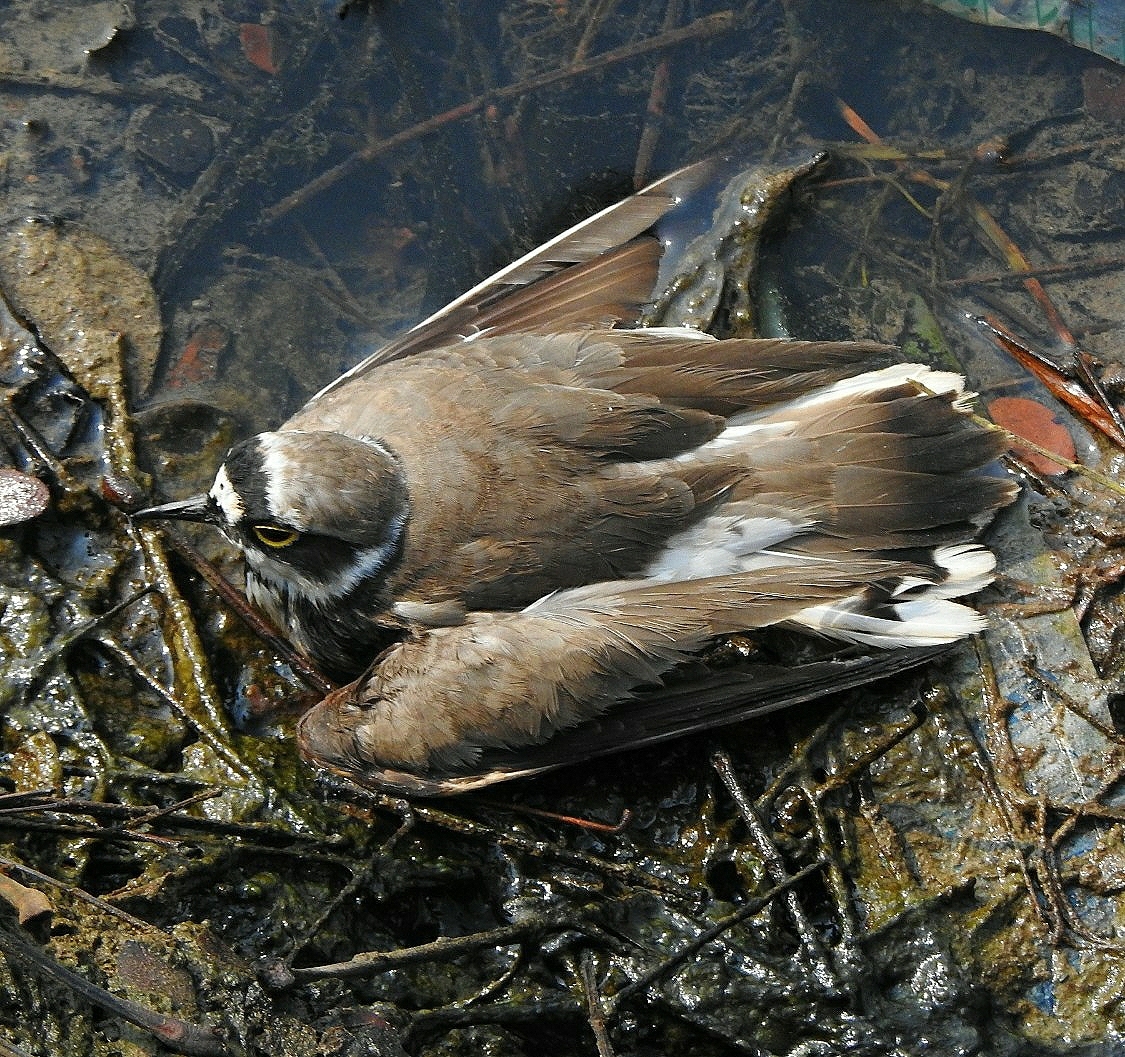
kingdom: Animalia
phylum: Chordata
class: Aves
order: Charadriiformes
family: Charadriidae
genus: Charadrius
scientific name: Charadrius dubius
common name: Little ringed plover
